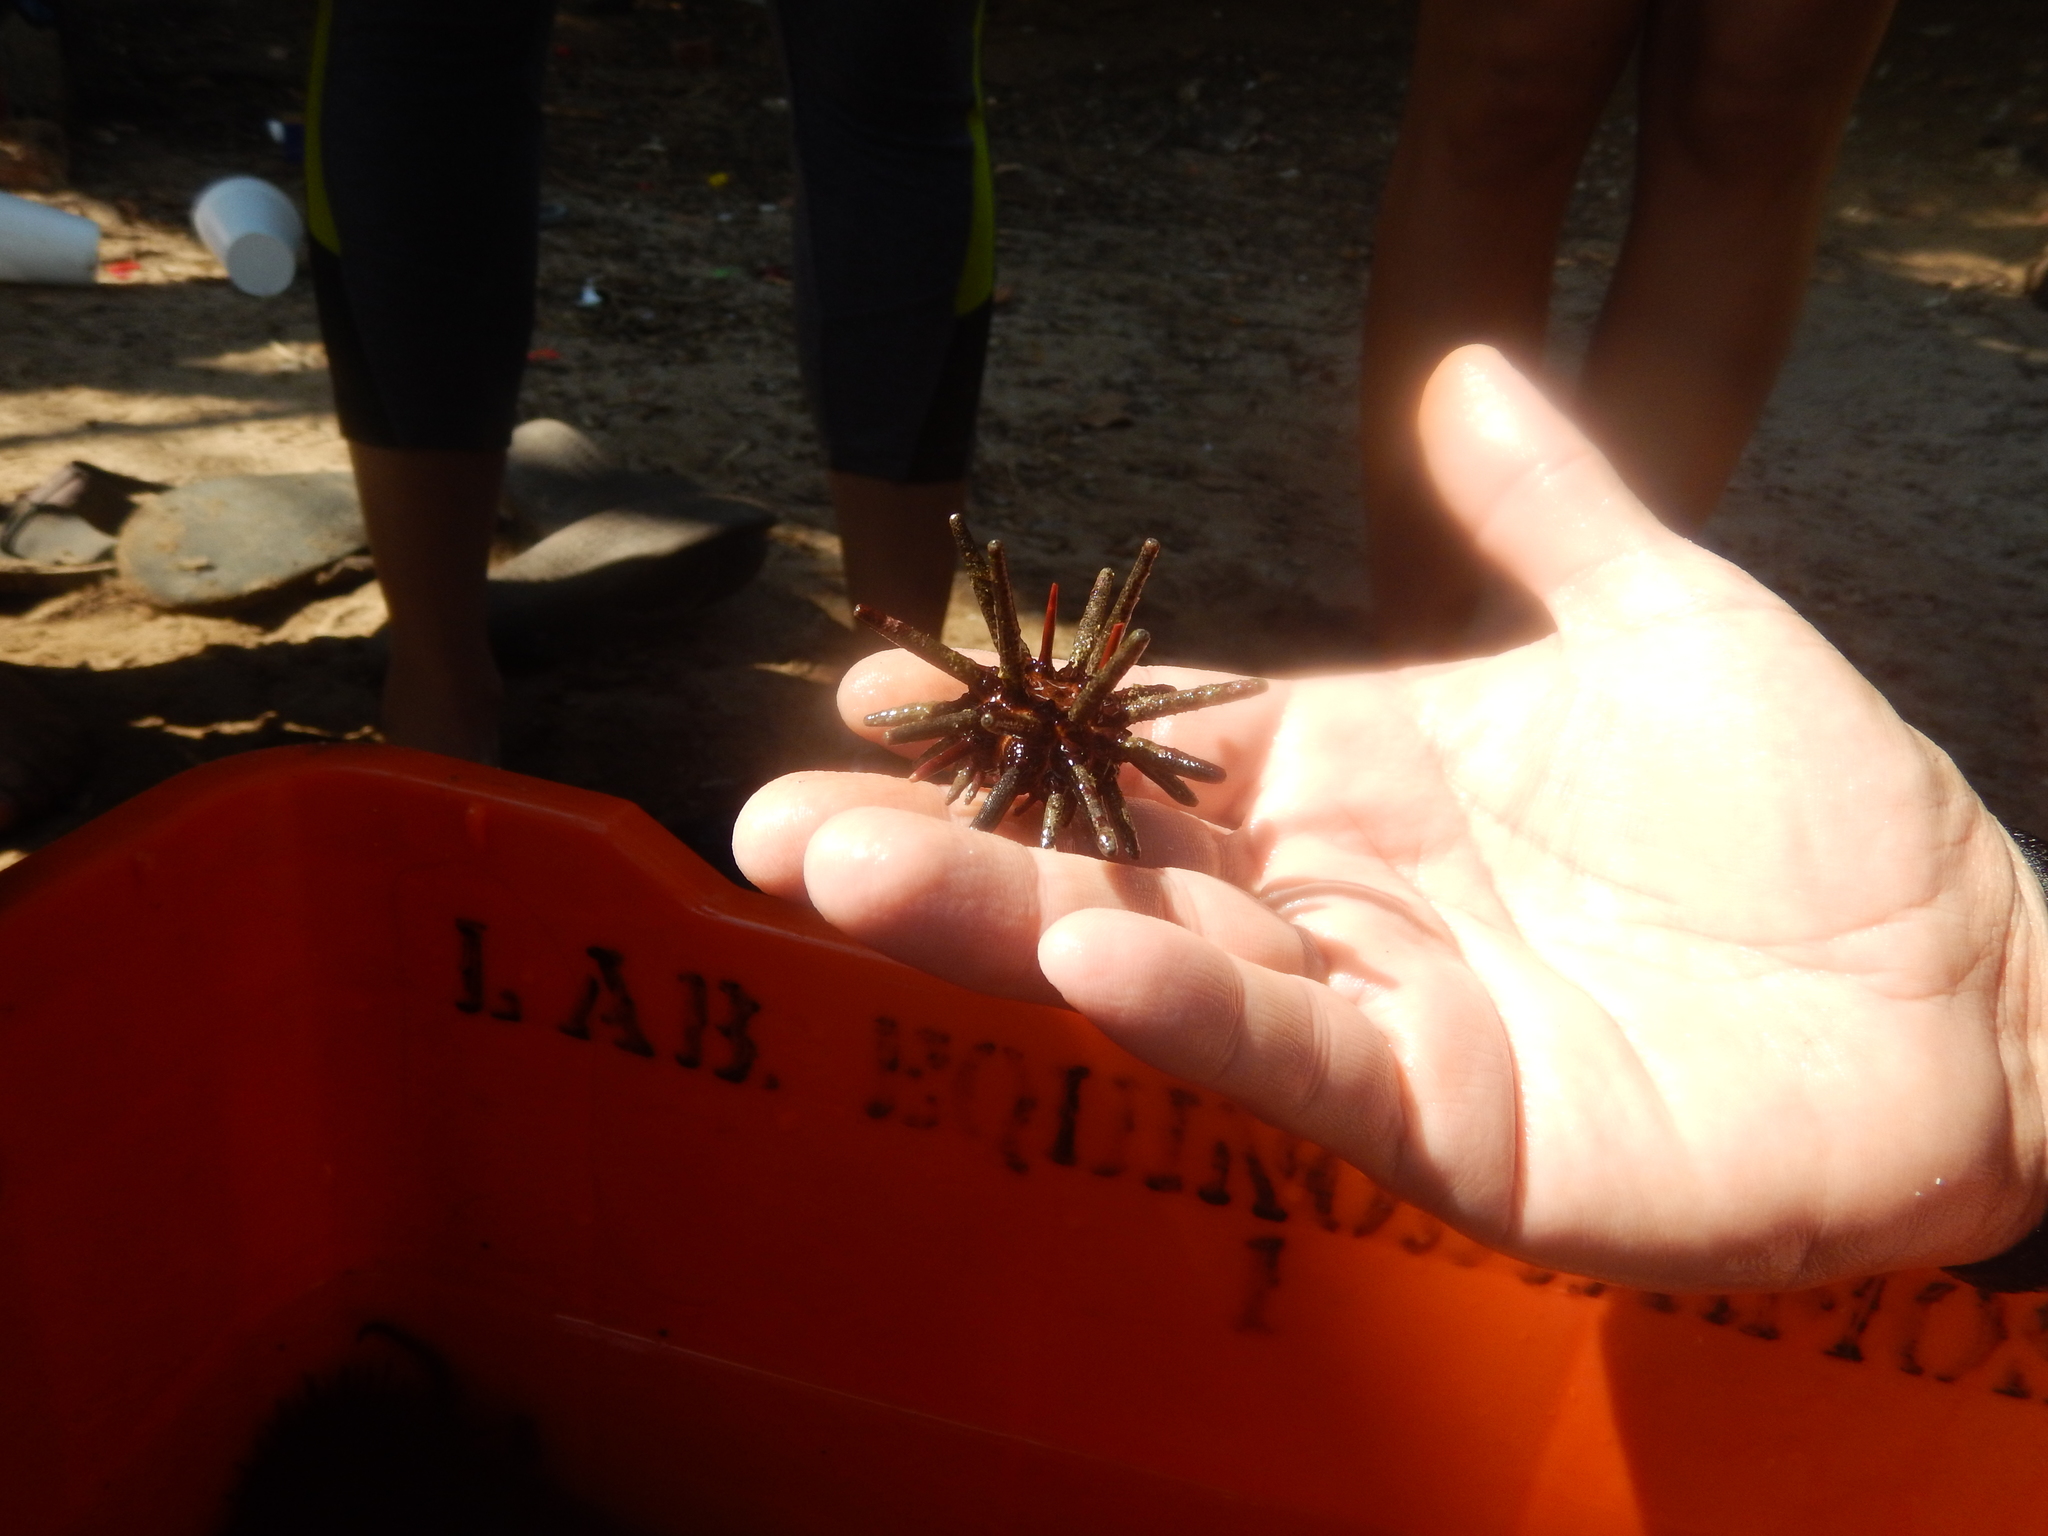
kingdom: Animalia
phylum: Echinodermata
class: Echinoidea
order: Cidaroida
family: Cidaridae
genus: Eucidaris
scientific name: Eucidaris thouarsii
